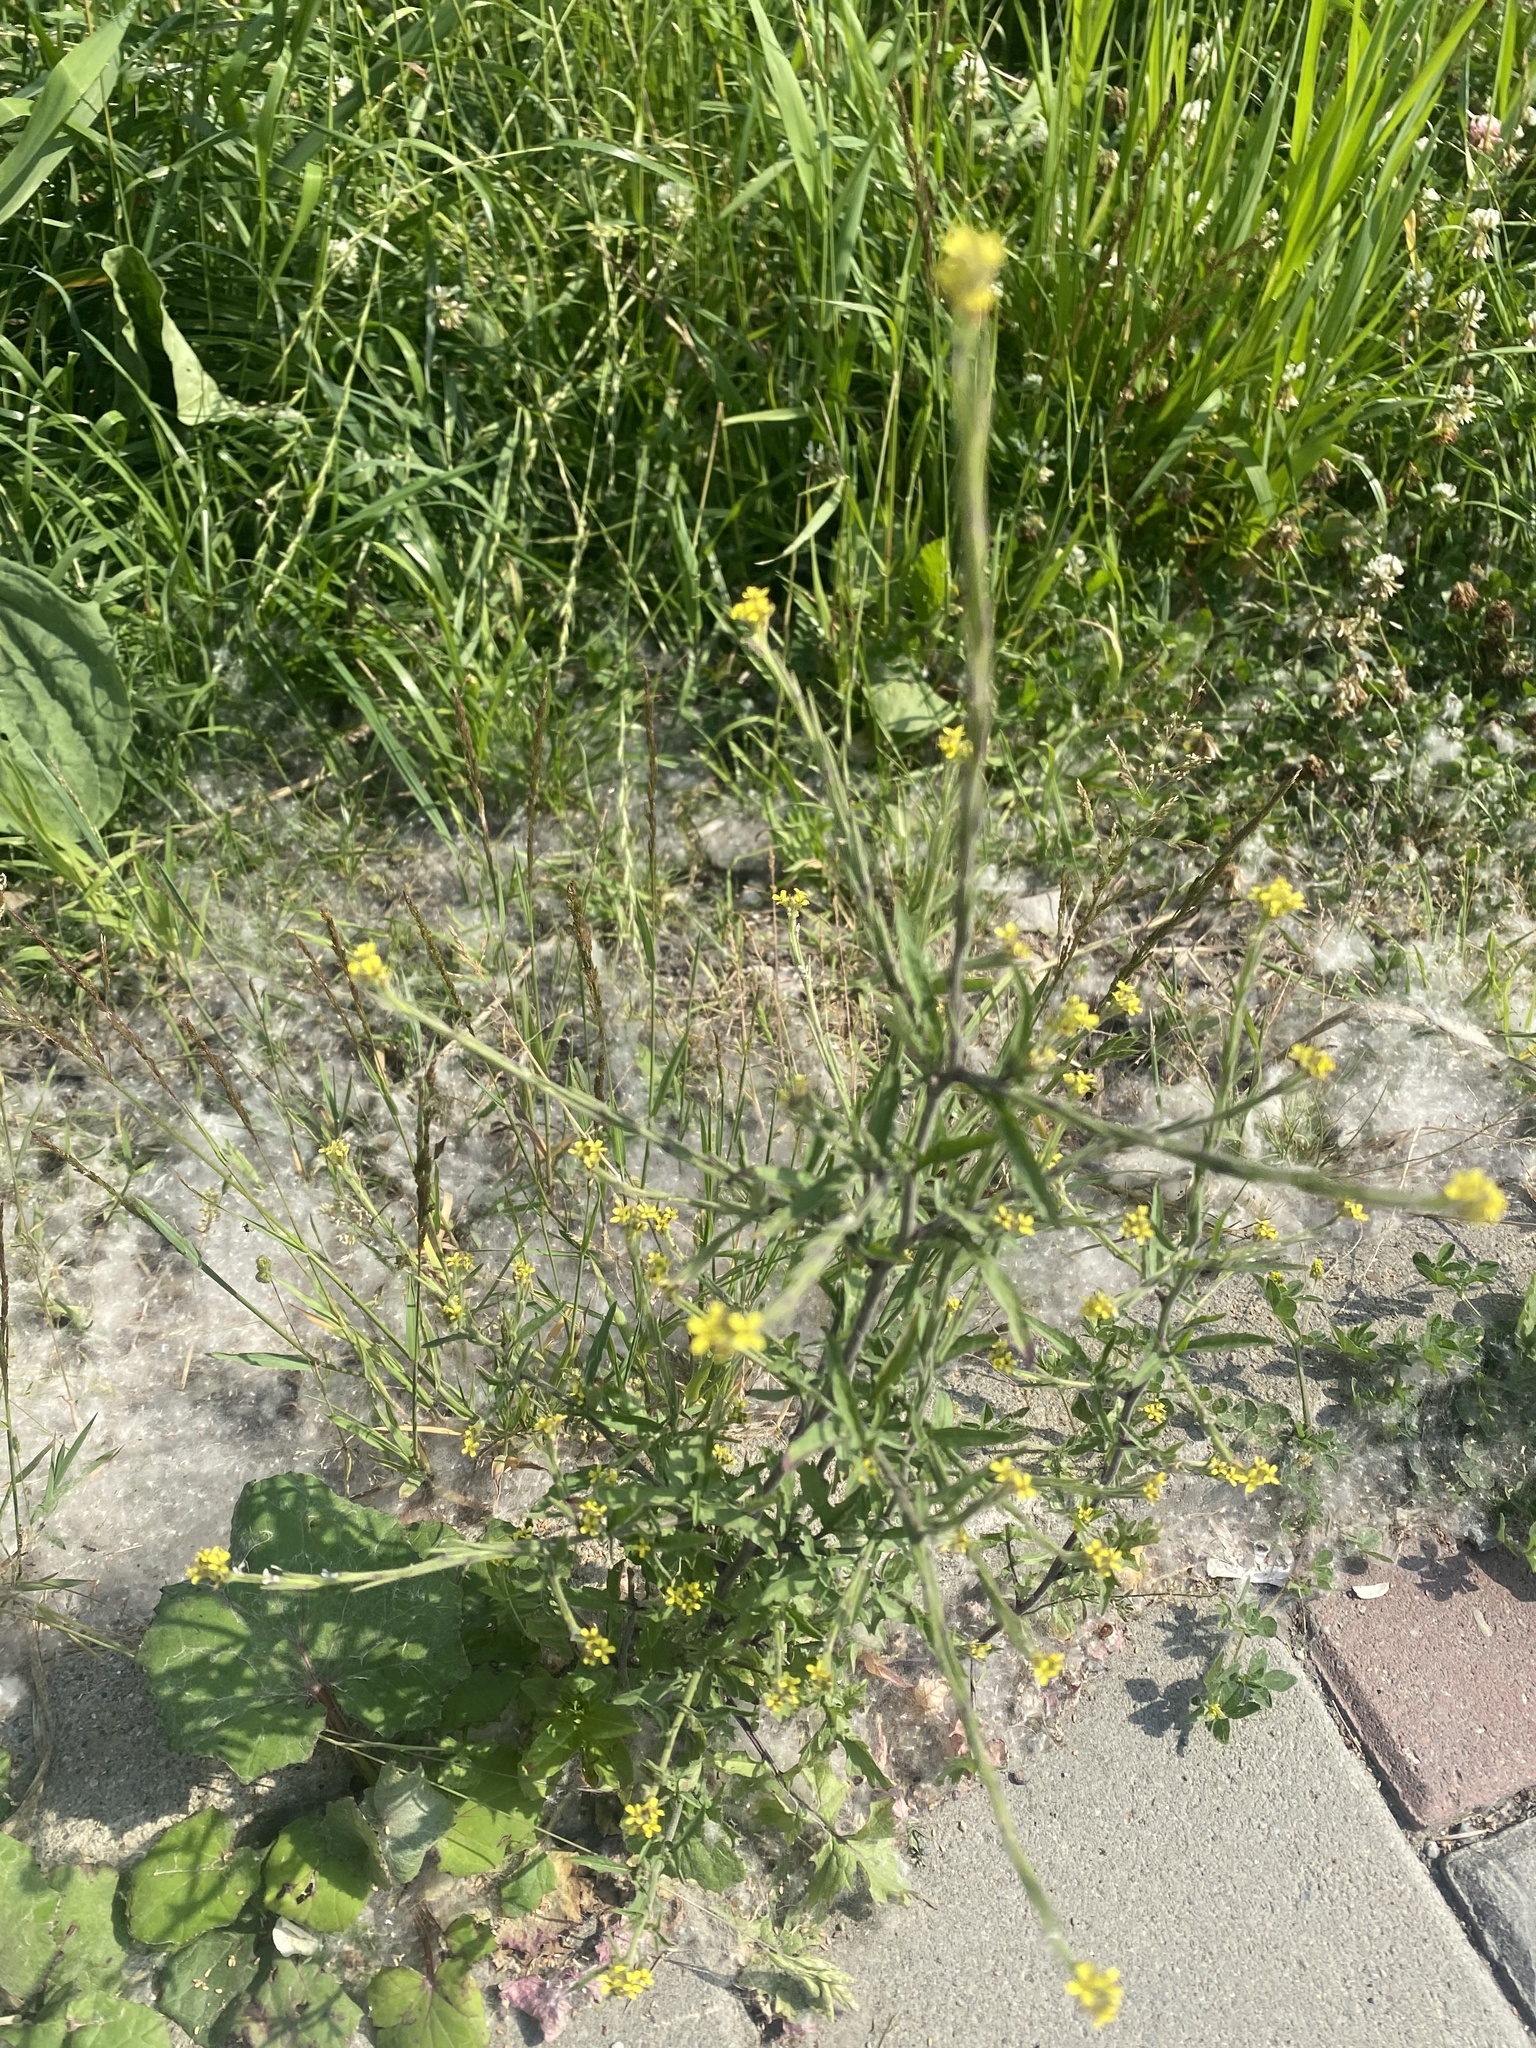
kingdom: Plantae
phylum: Tracheophyta
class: Magnoliopsida
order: Brassicales
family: Brassicaceae
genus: Sisymbrium
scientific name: Sisymbrium officinale
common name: Hedge mustard
